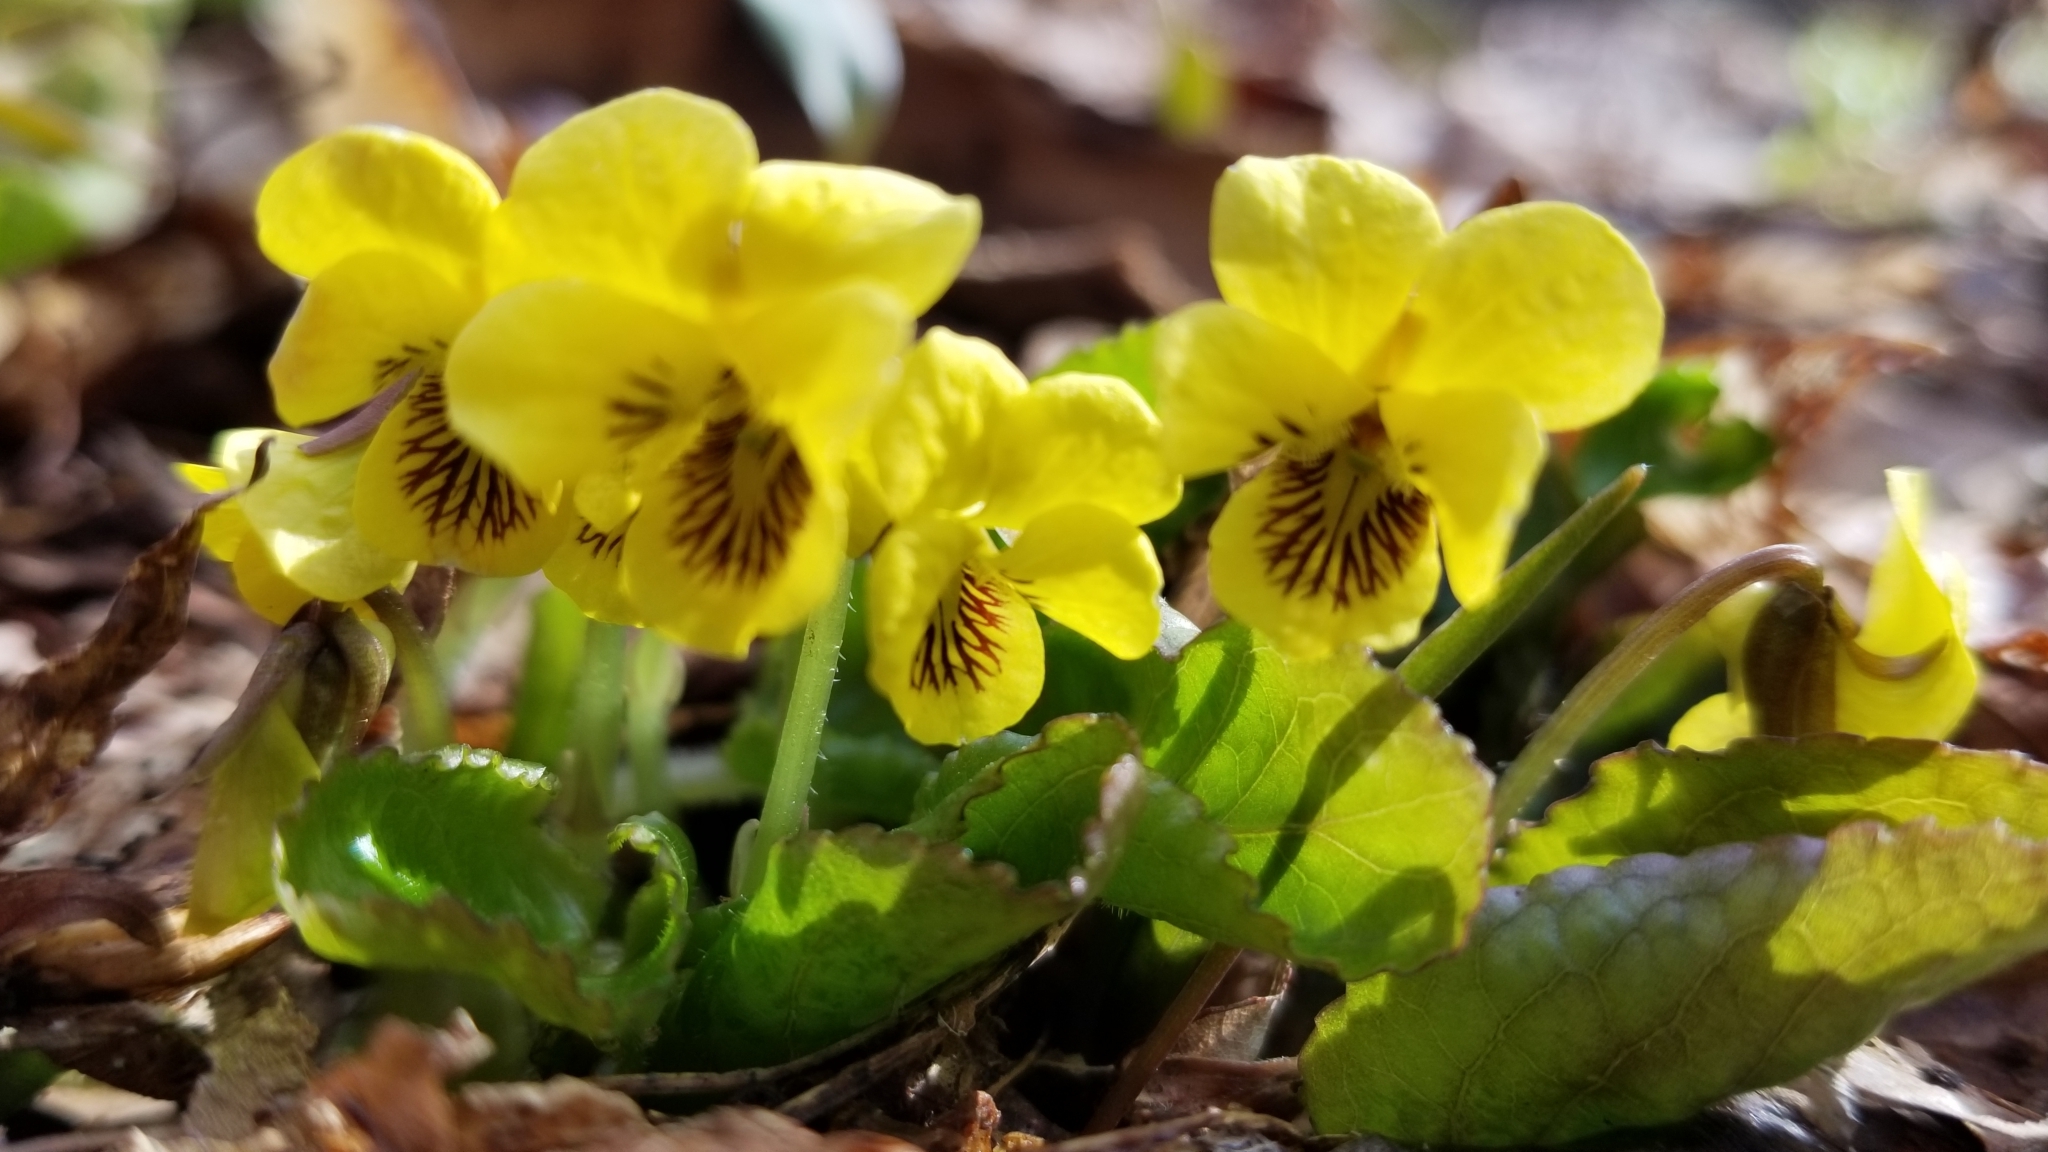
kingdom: Plantae
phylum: Tracheophyta
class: Magnoliopsida
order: Malpighiales
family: Violaceae
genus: Viola
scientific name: Viola rotundifolia
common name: Early yellow violet
